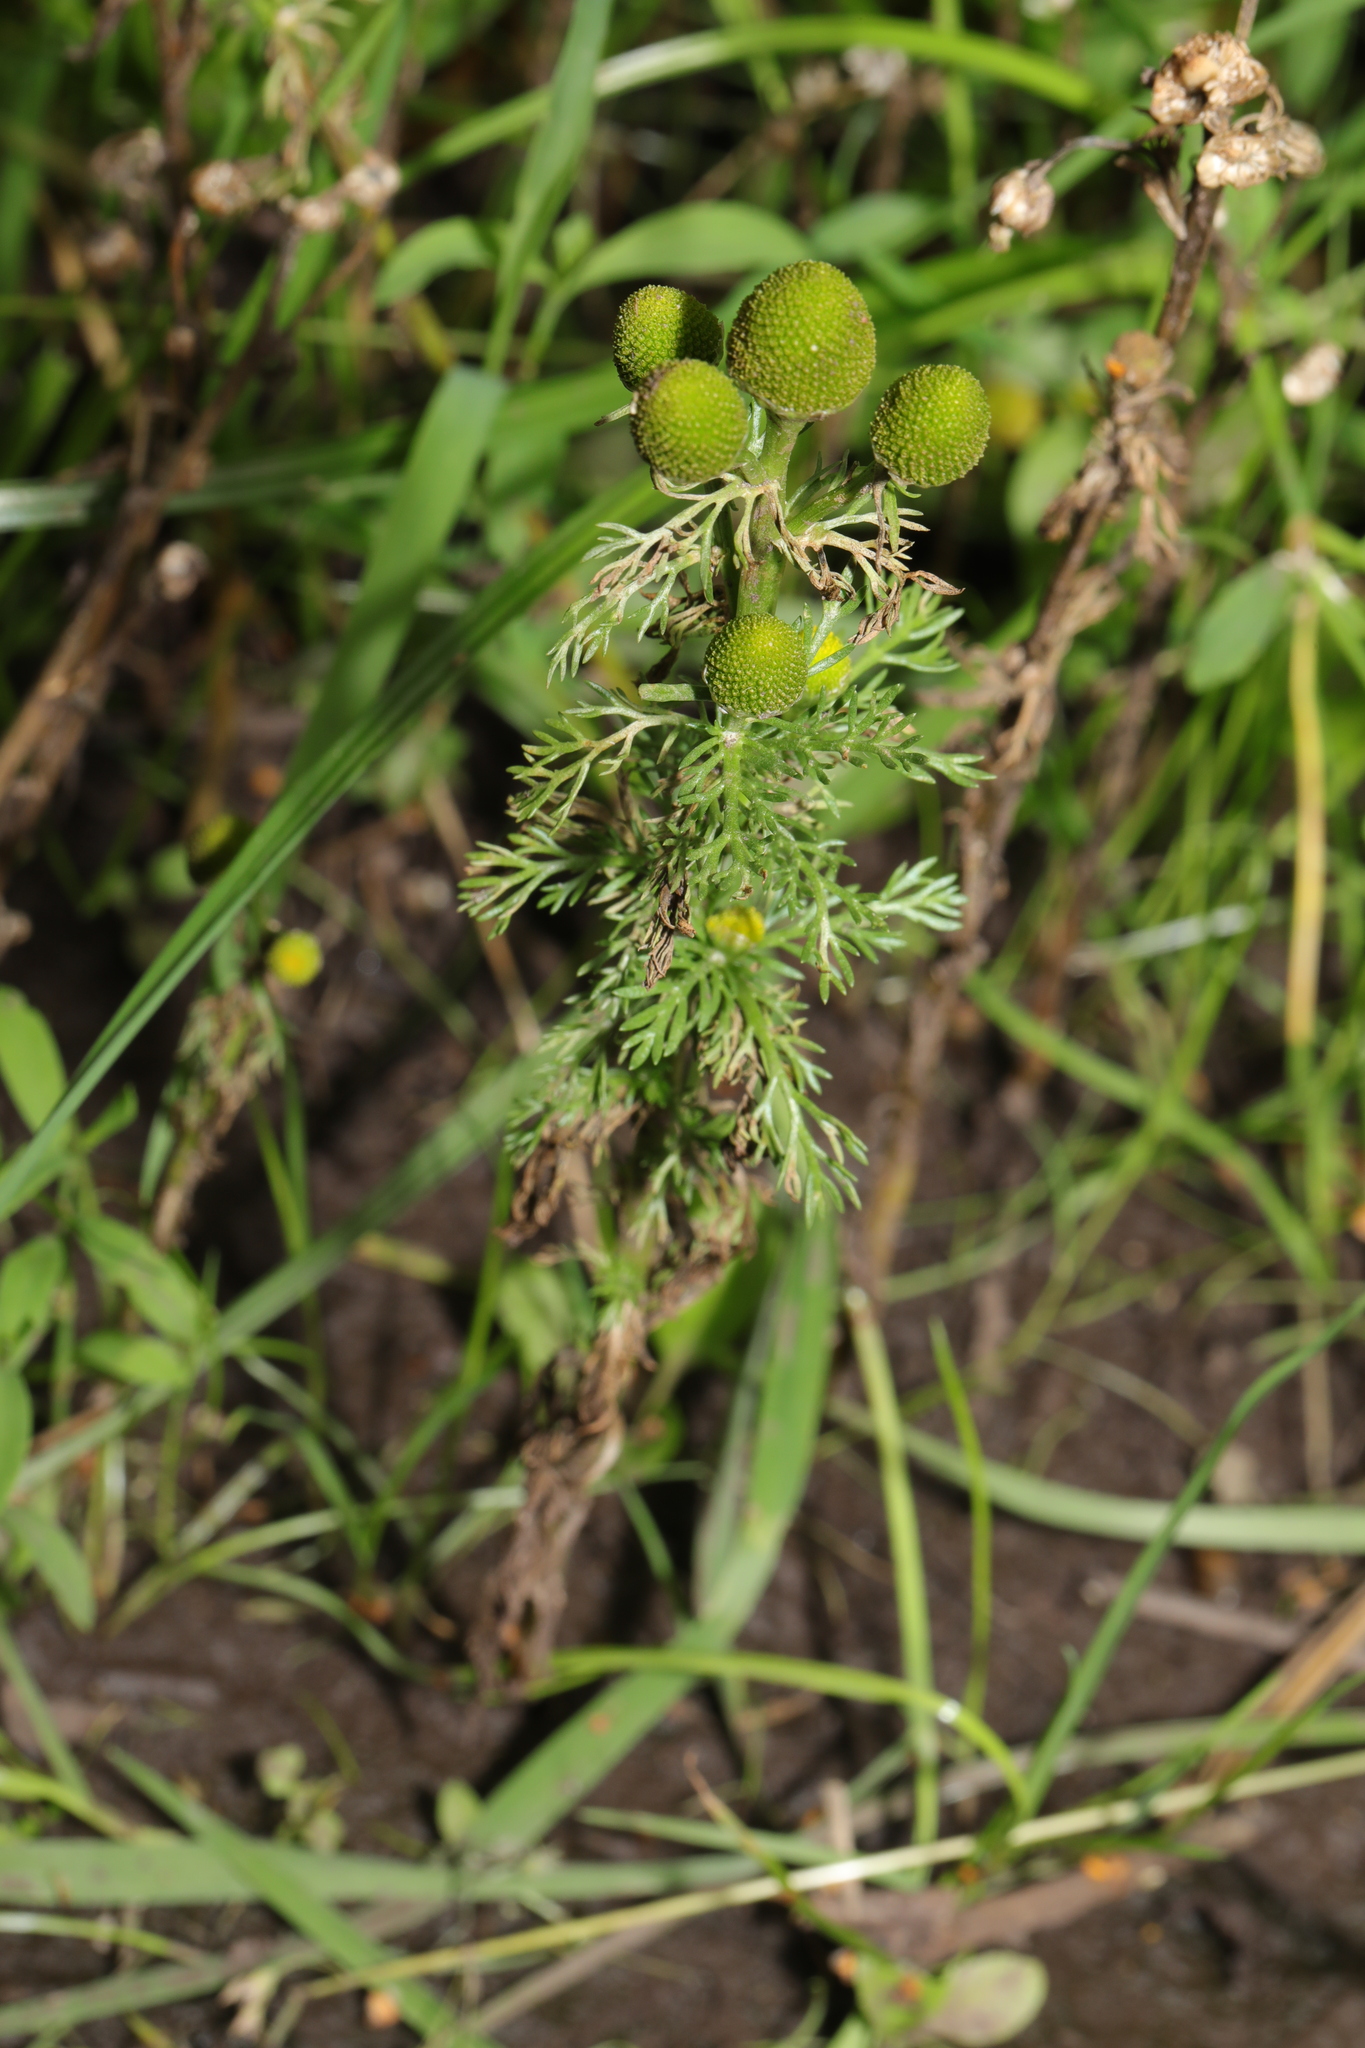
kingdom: Plantae
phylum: Tracheophyta
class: Magnoliopsida
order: Asterales
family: Asteraceae
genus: Matricaria
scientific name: Matricaria discoidea
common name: Disc mayweed
